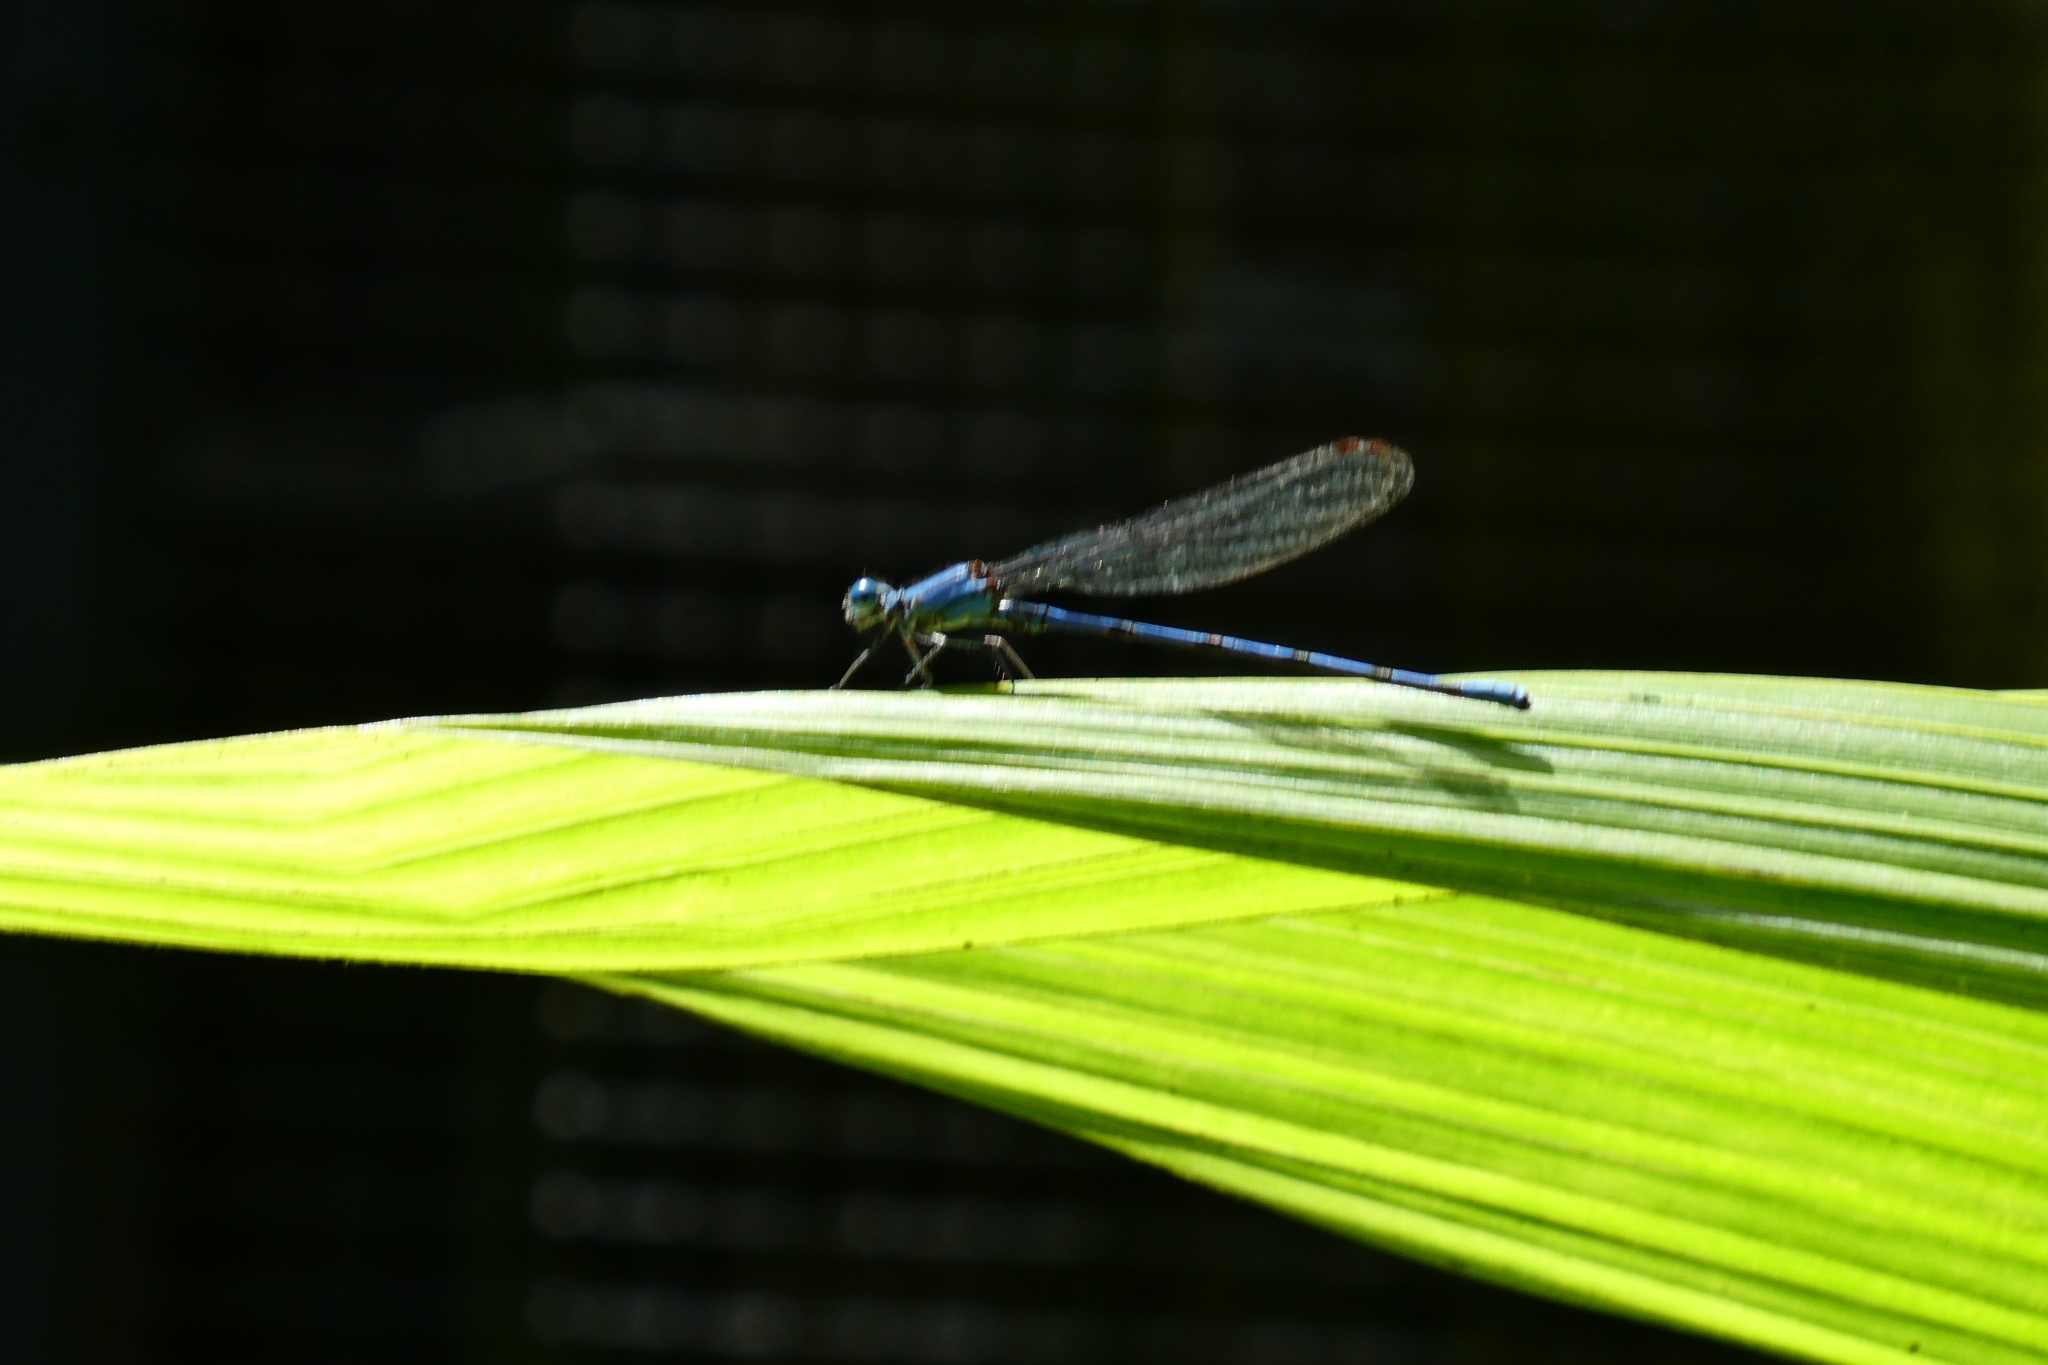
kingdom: Animalia
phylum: Arthropoda
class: Insecta
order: Odonata
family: Coenagrionidae
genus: Argia
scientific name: Argia anceps
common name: Cerulean dancer
